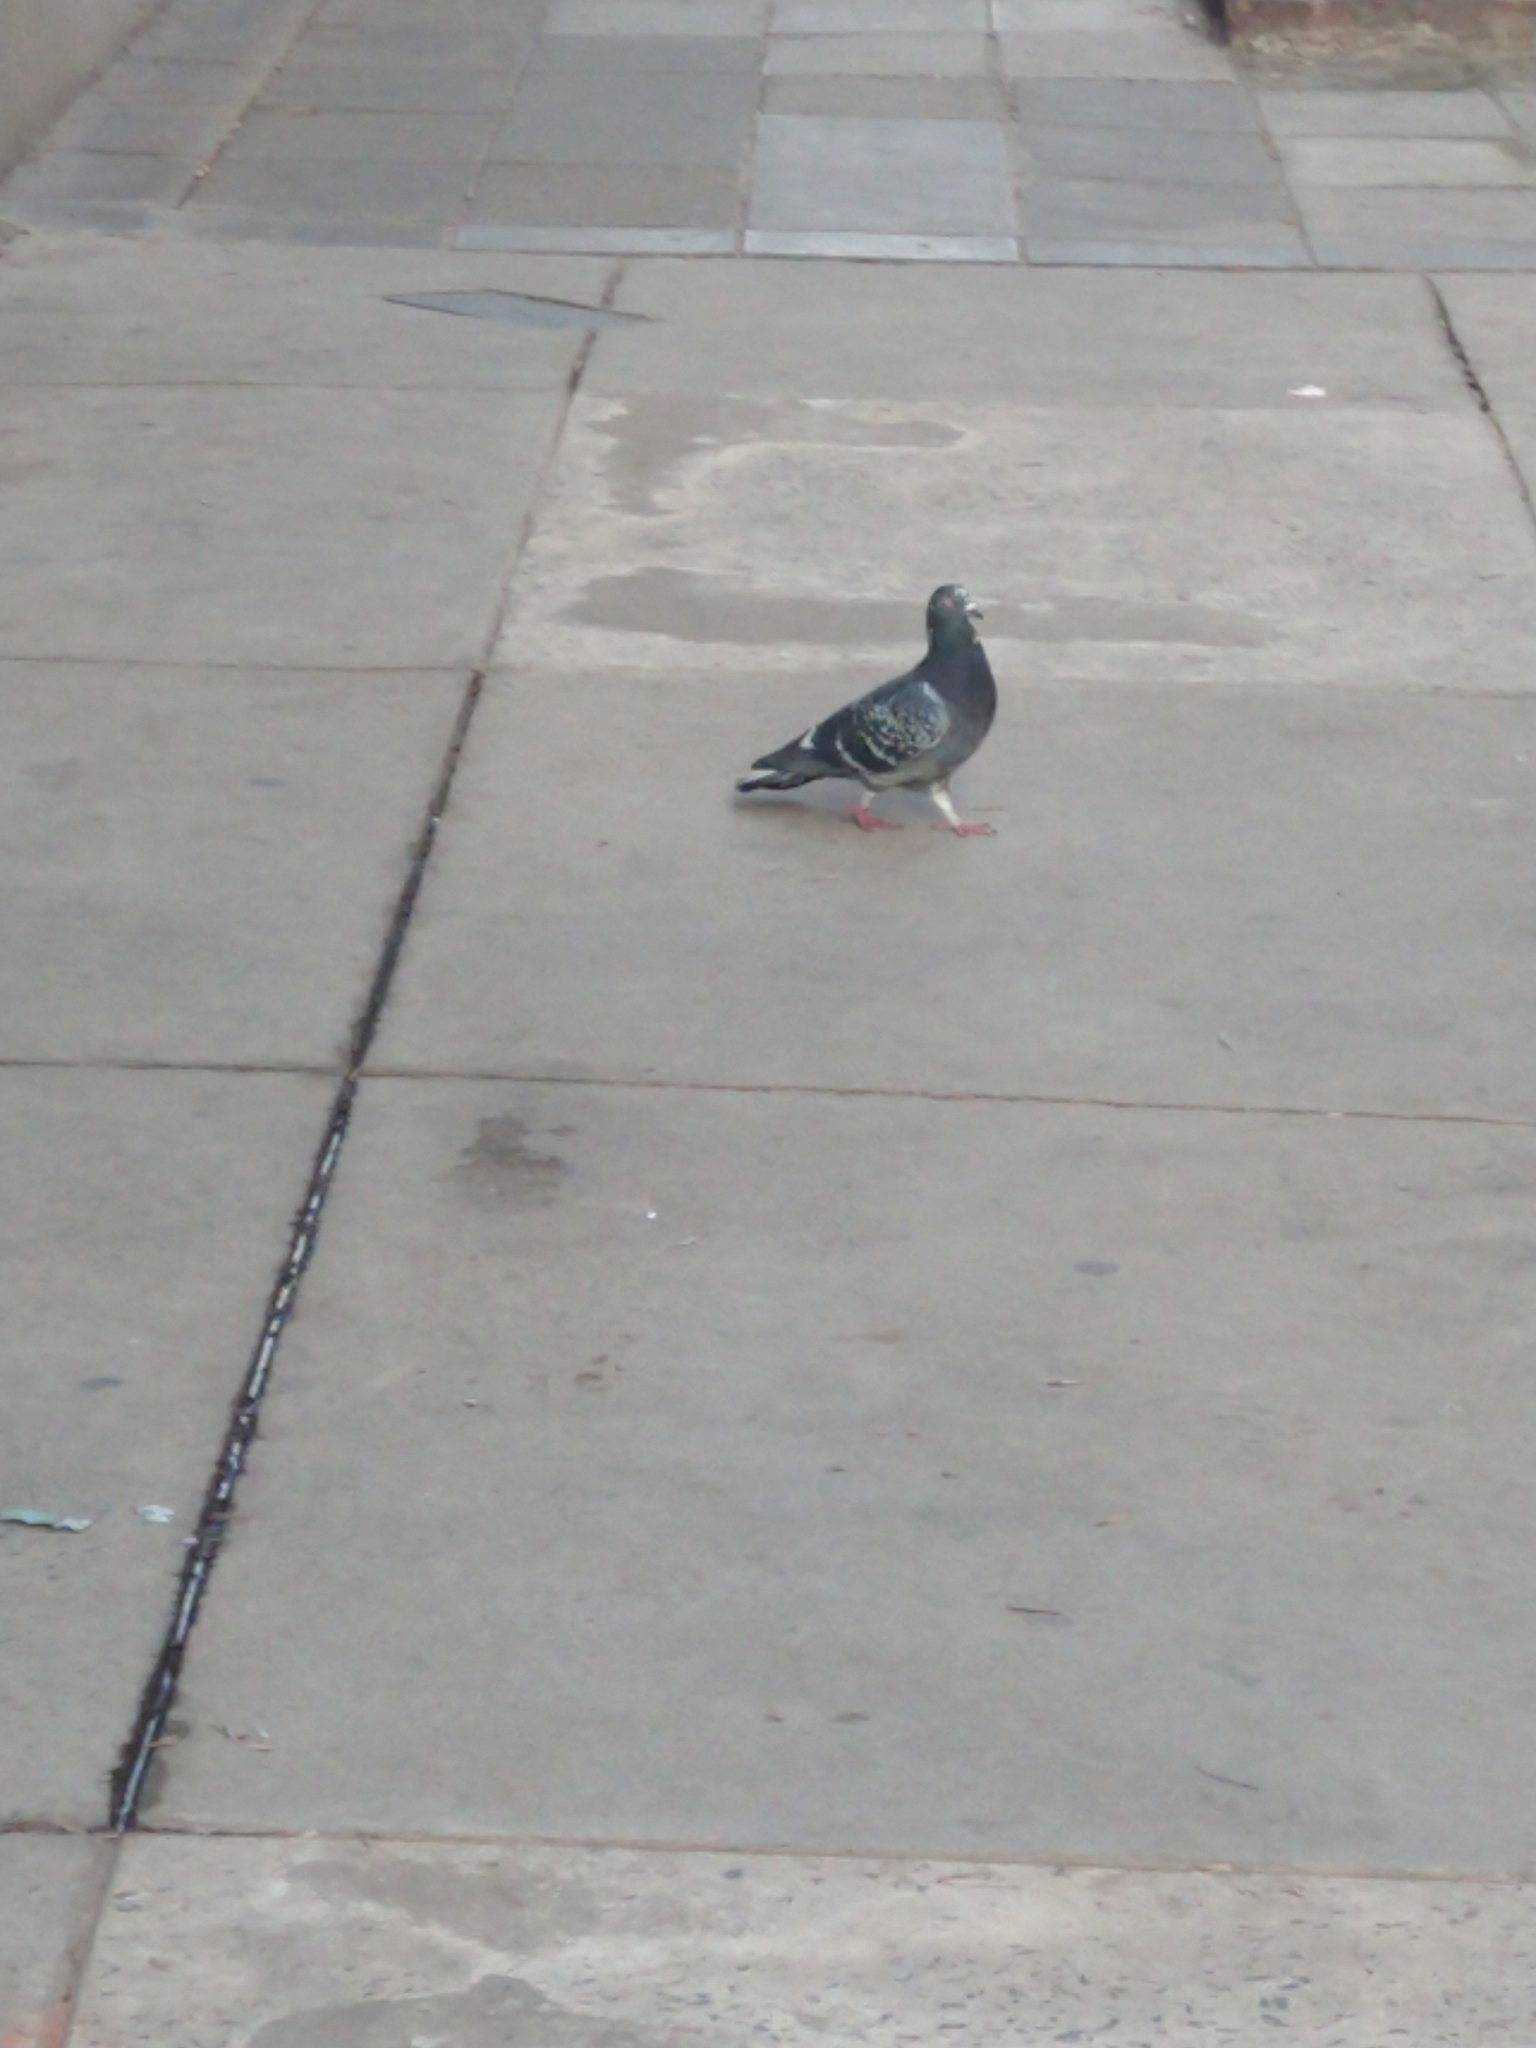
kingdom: Animalia
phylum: Chordata
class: Aves
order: Columbiformes
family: Columbidae
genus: Columba
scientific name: Columba livia
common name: Rock pigeon
